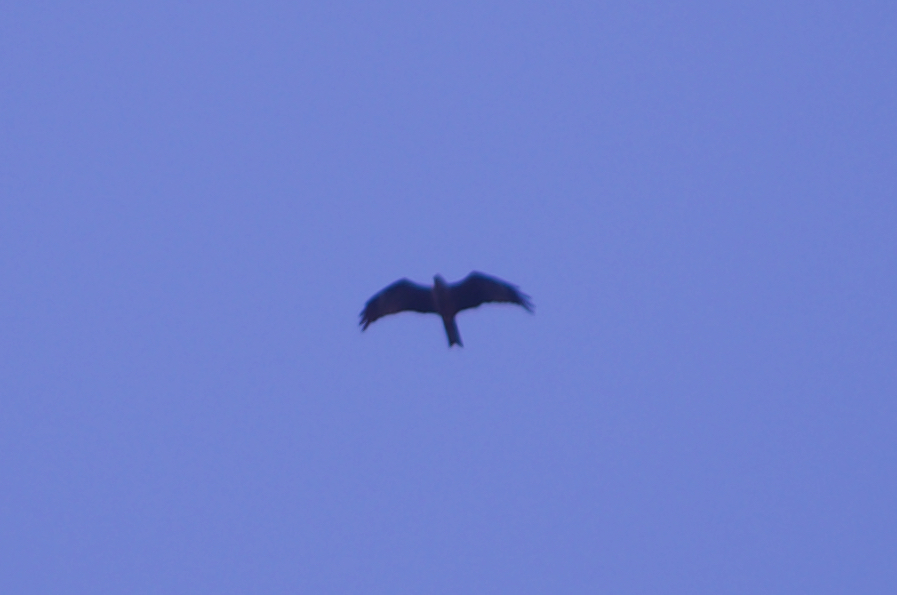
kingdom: Animalia
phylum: Chordata
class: Aves
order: Accipitriformes
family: Accipitridae
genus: Milvus
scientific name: Milvus migrans
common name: Black kite
